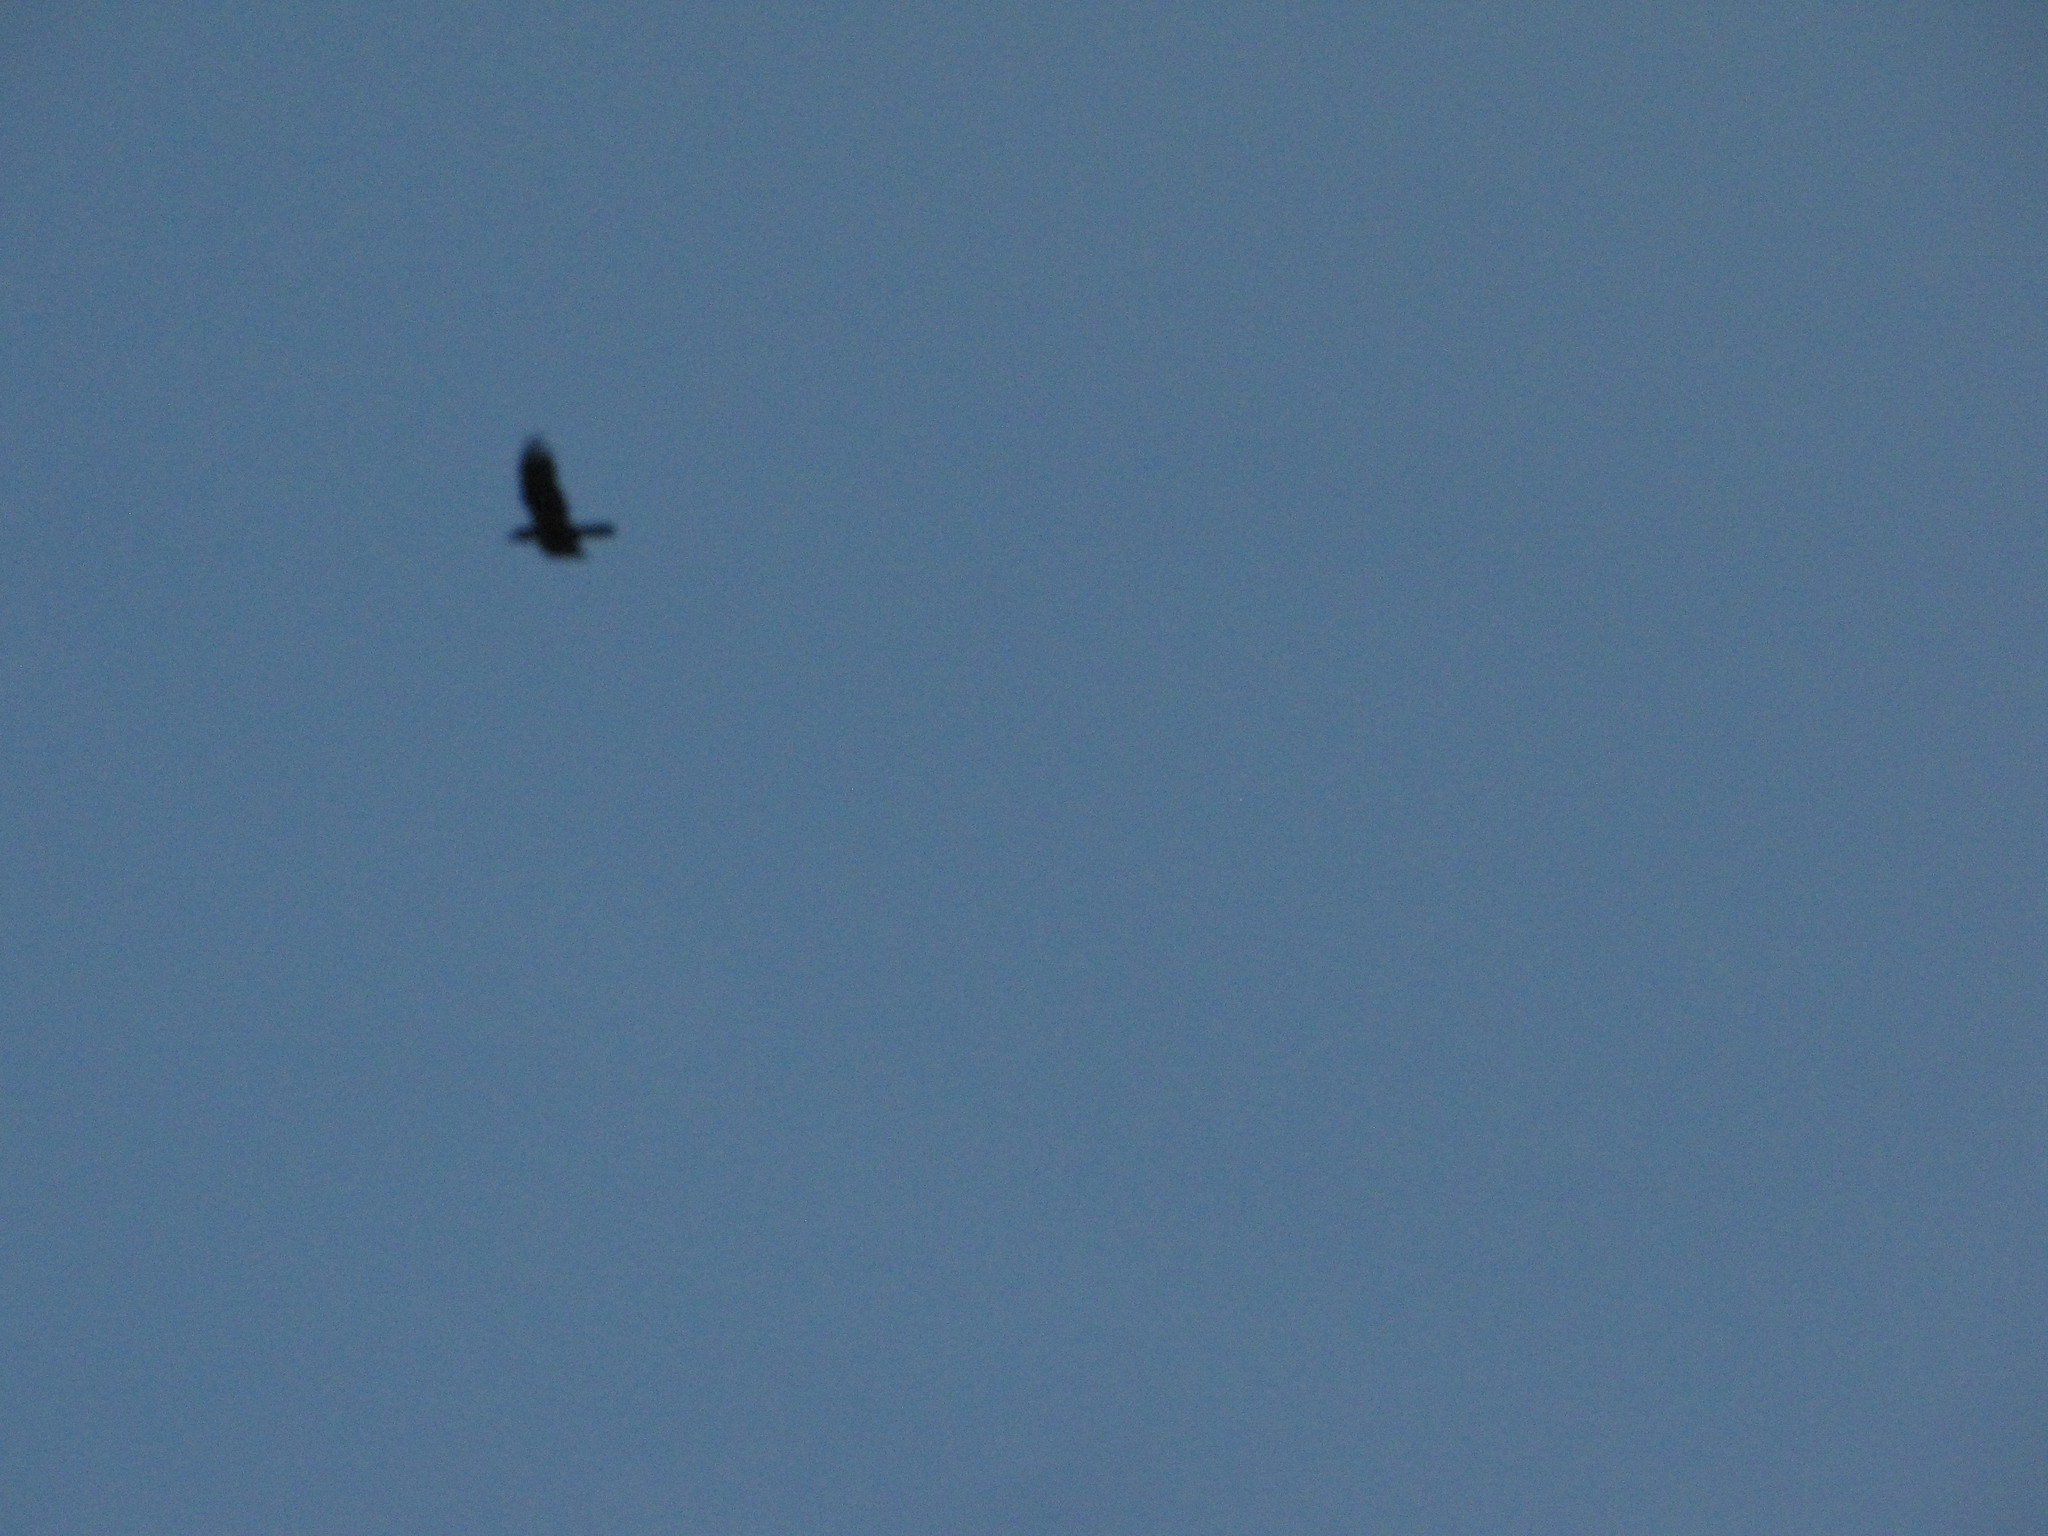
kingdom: Animalia
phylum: Chordata
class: Aves
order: Passeriformes
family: Corvidae
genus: Corvus
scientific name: Corvus corax
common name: Common raven
